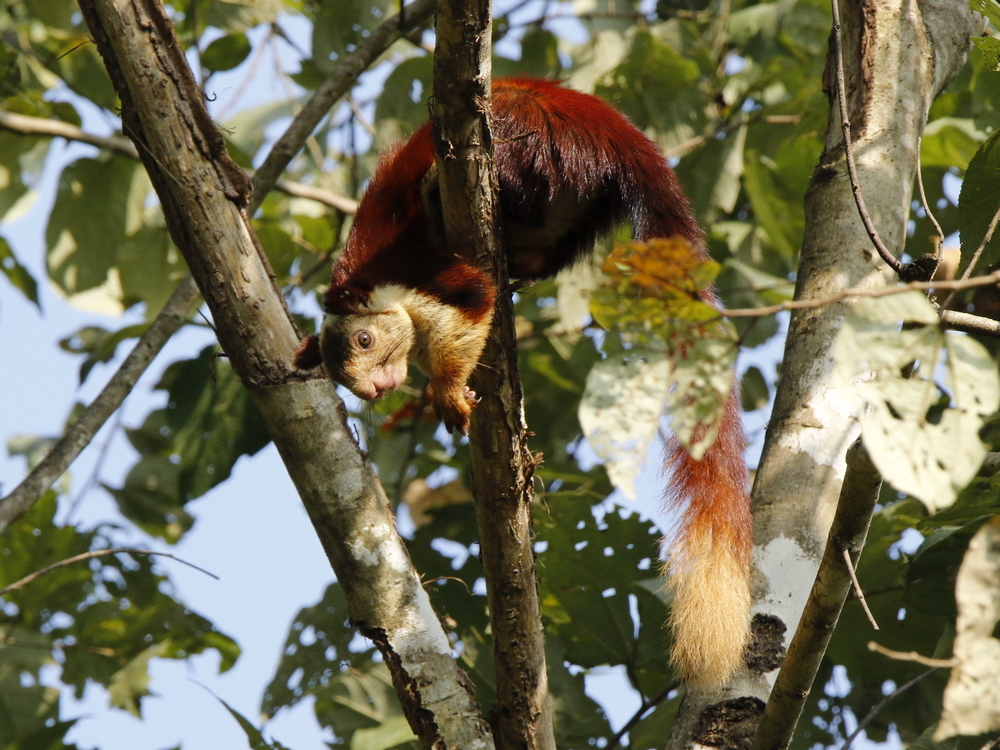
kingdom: Animalia
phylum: Chordata
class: Mammalia
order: Rodentia
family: Sciuridae
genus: Ratufa
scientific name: Ratufa indica
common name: Indian giant squirrel
